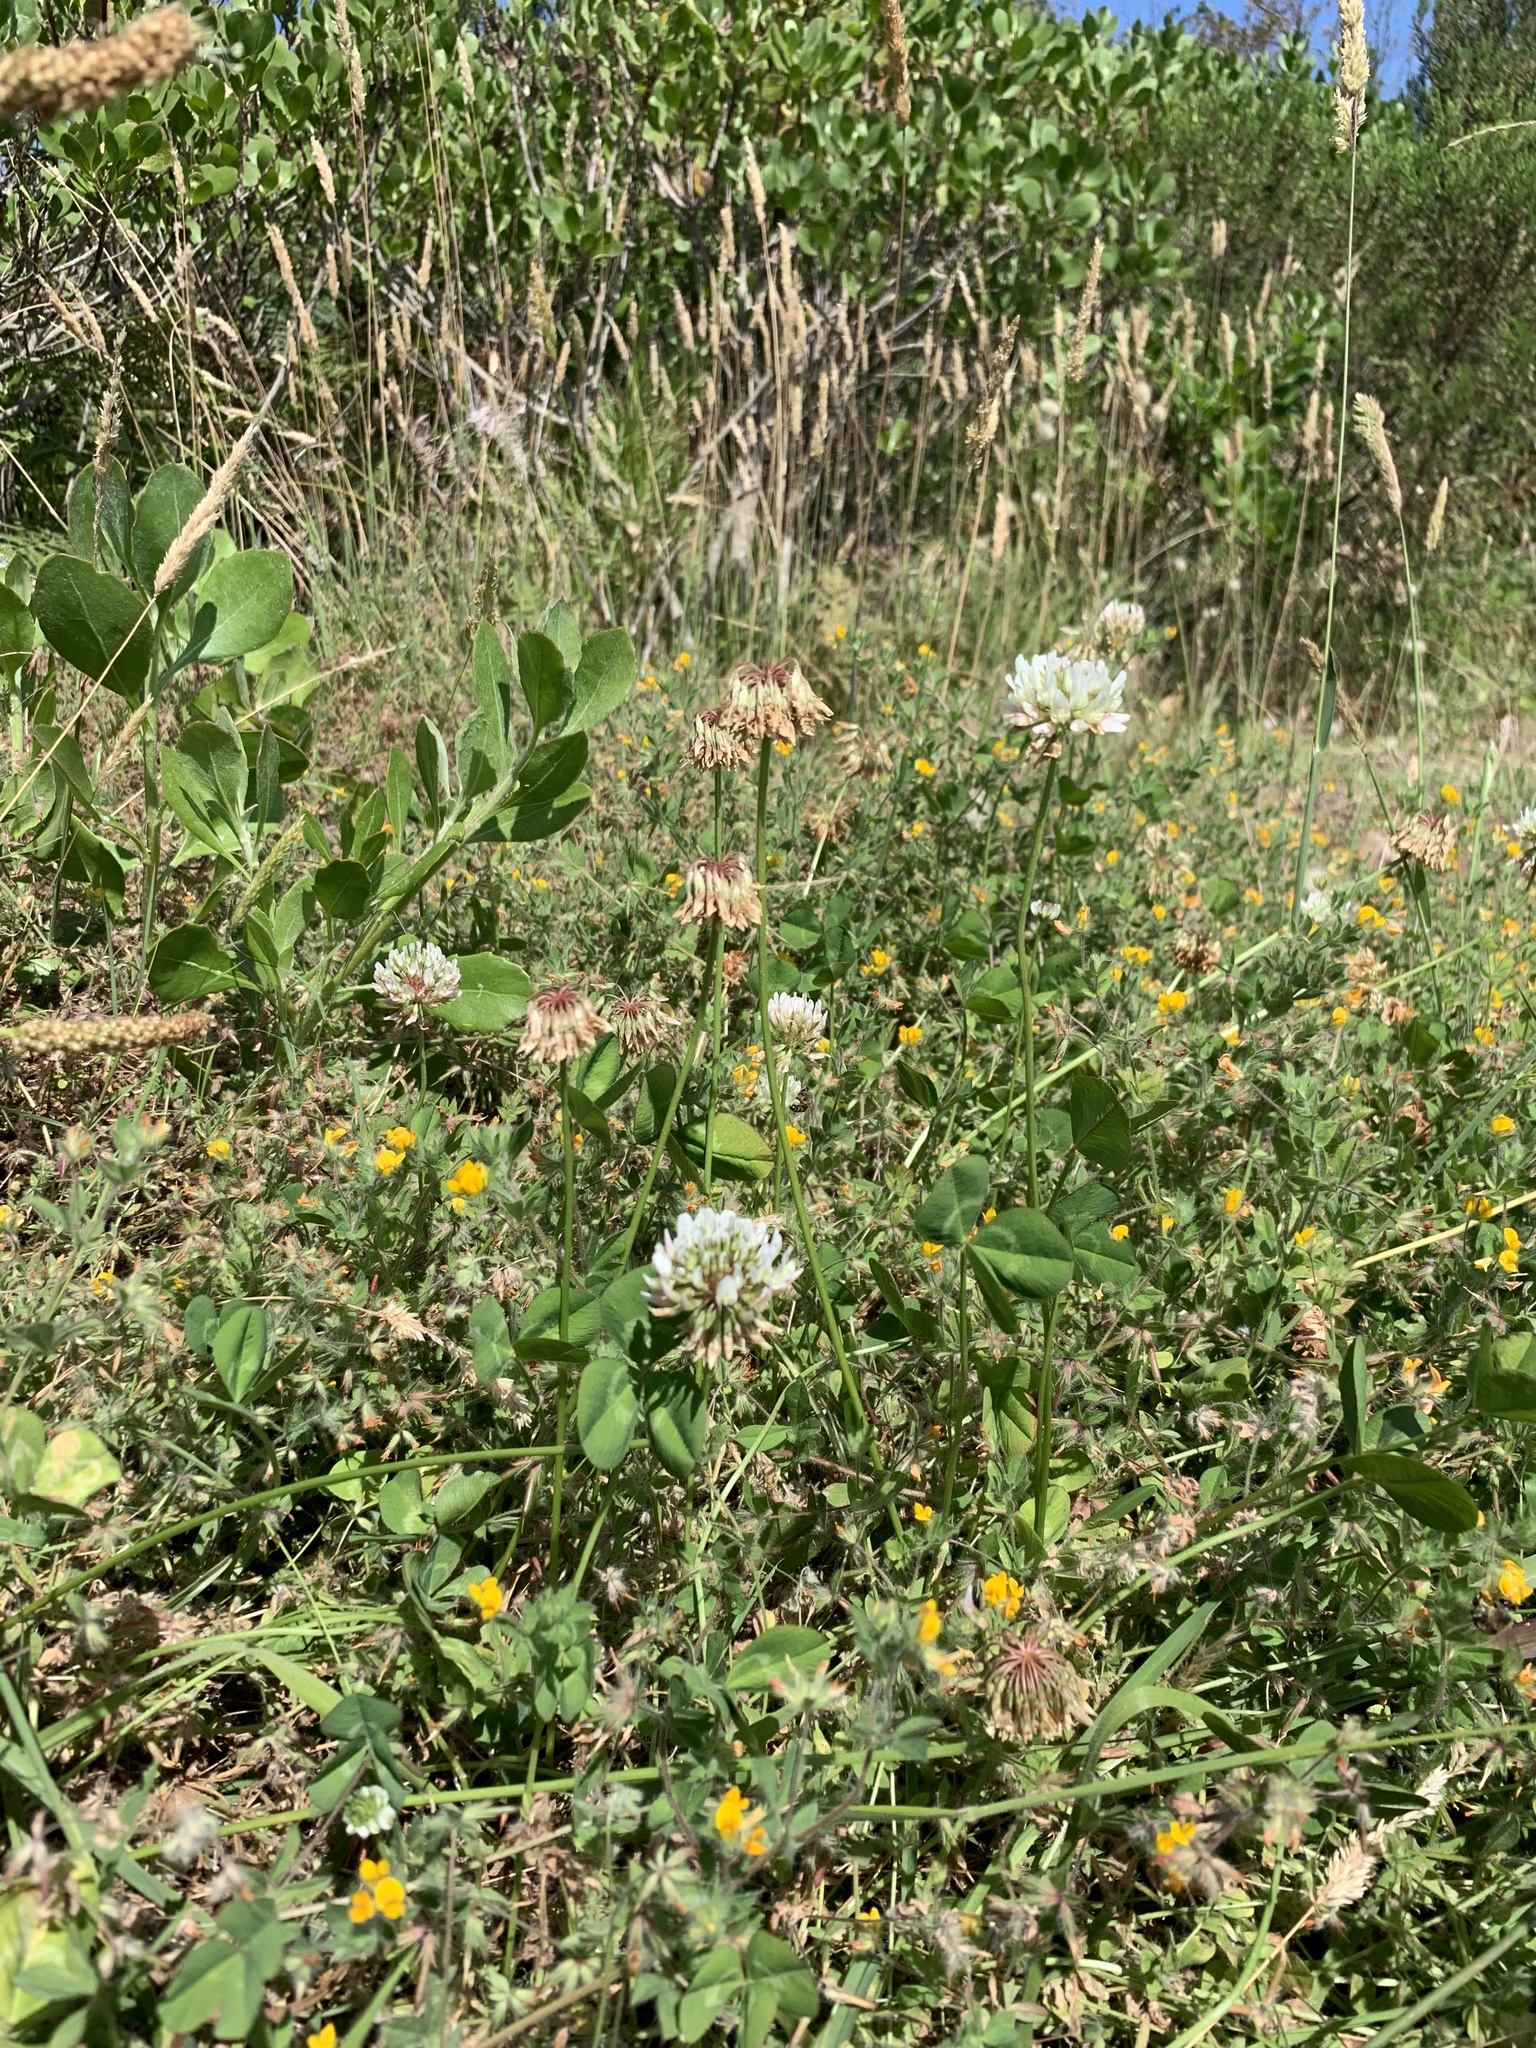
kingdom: Plantae
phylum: Tracheophyta
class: Magnoliopsida
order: Fabales
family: Fabaceae
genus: Trifolium
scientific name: Trifolium repens
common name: White clover
